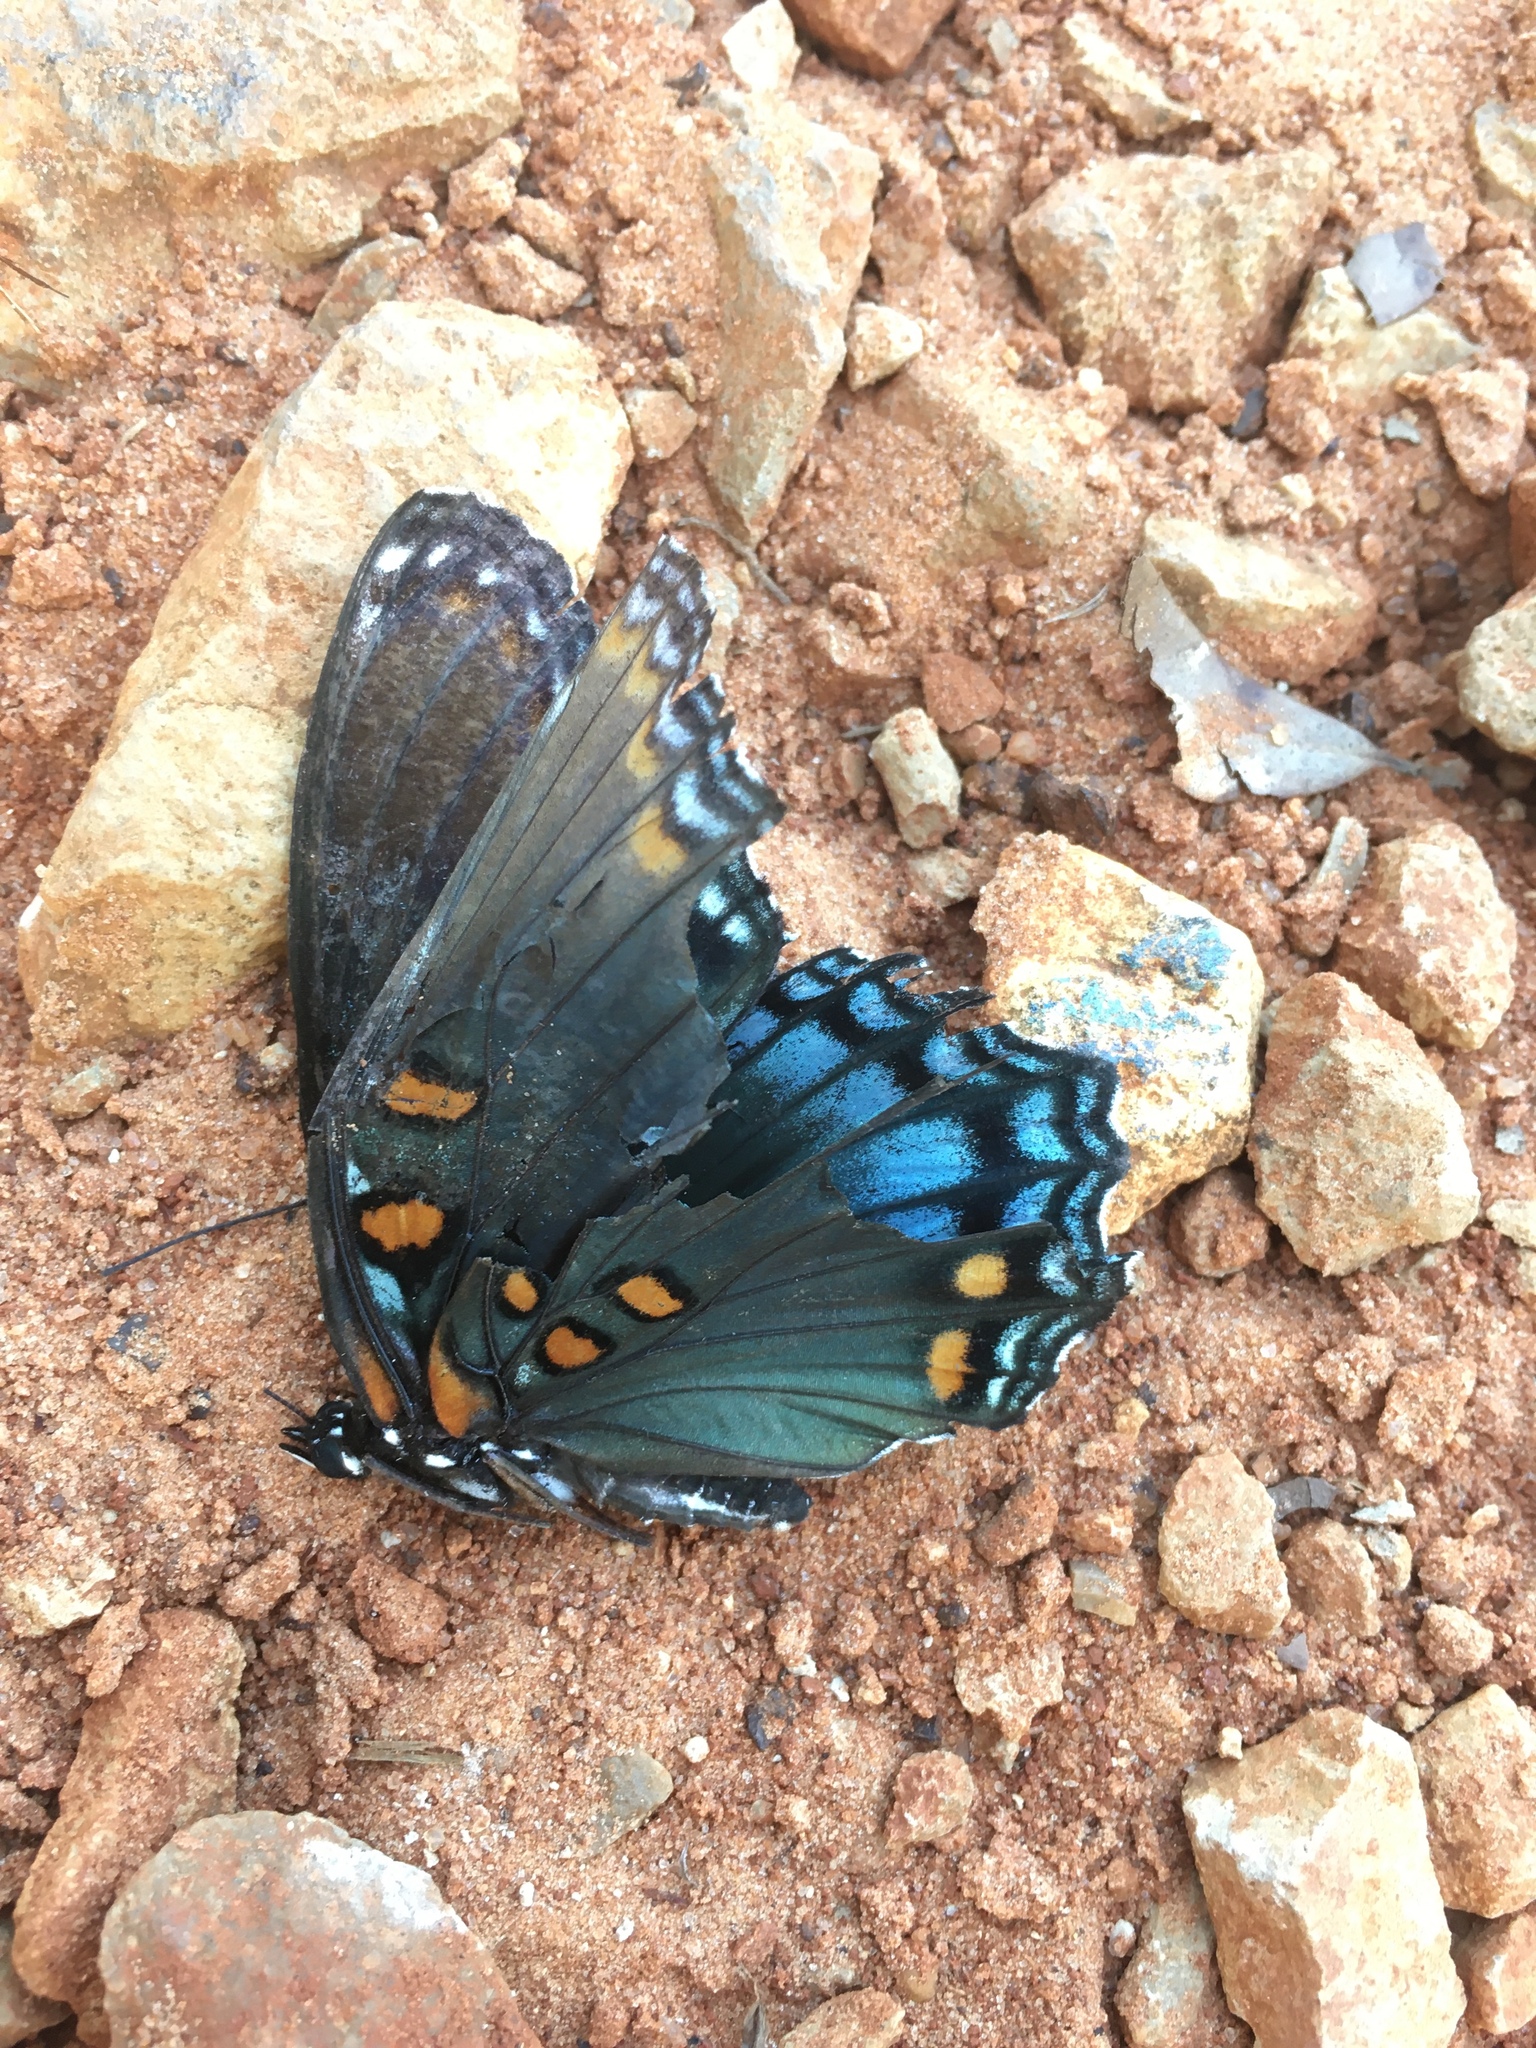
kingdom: Animalia
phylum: Arthropoda
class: Insecta
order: Lepidoptera
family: Nymphalidae
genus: Limenitis
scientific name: Limenitis arthemis
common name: Red-spotted admiral
